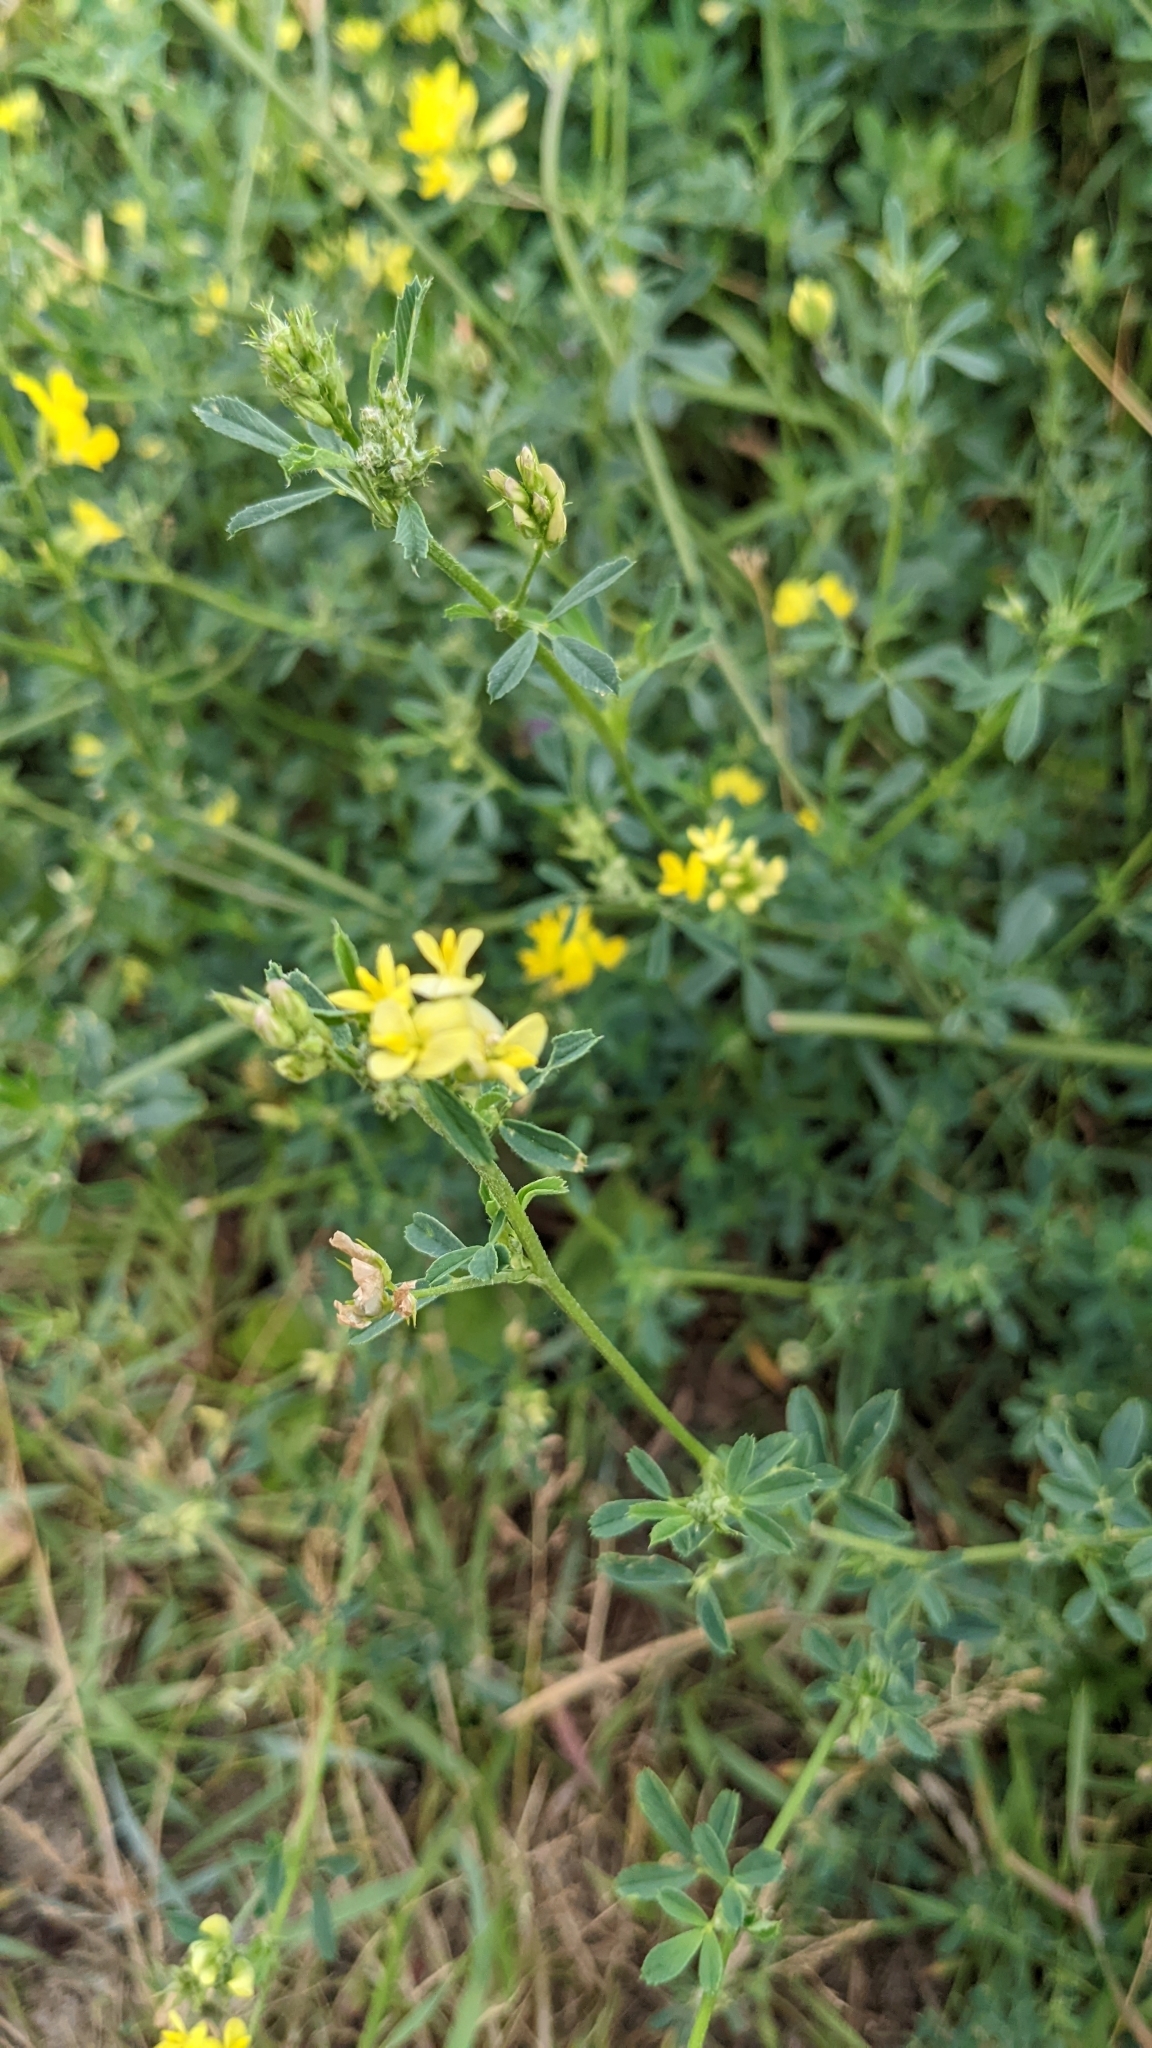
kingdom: Plantae
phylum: Tracheophyta
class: Magnoliopsida
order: Fabales
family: Fabaceae
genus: Medicago
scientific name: Medicago varia
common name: Sand lucerne
